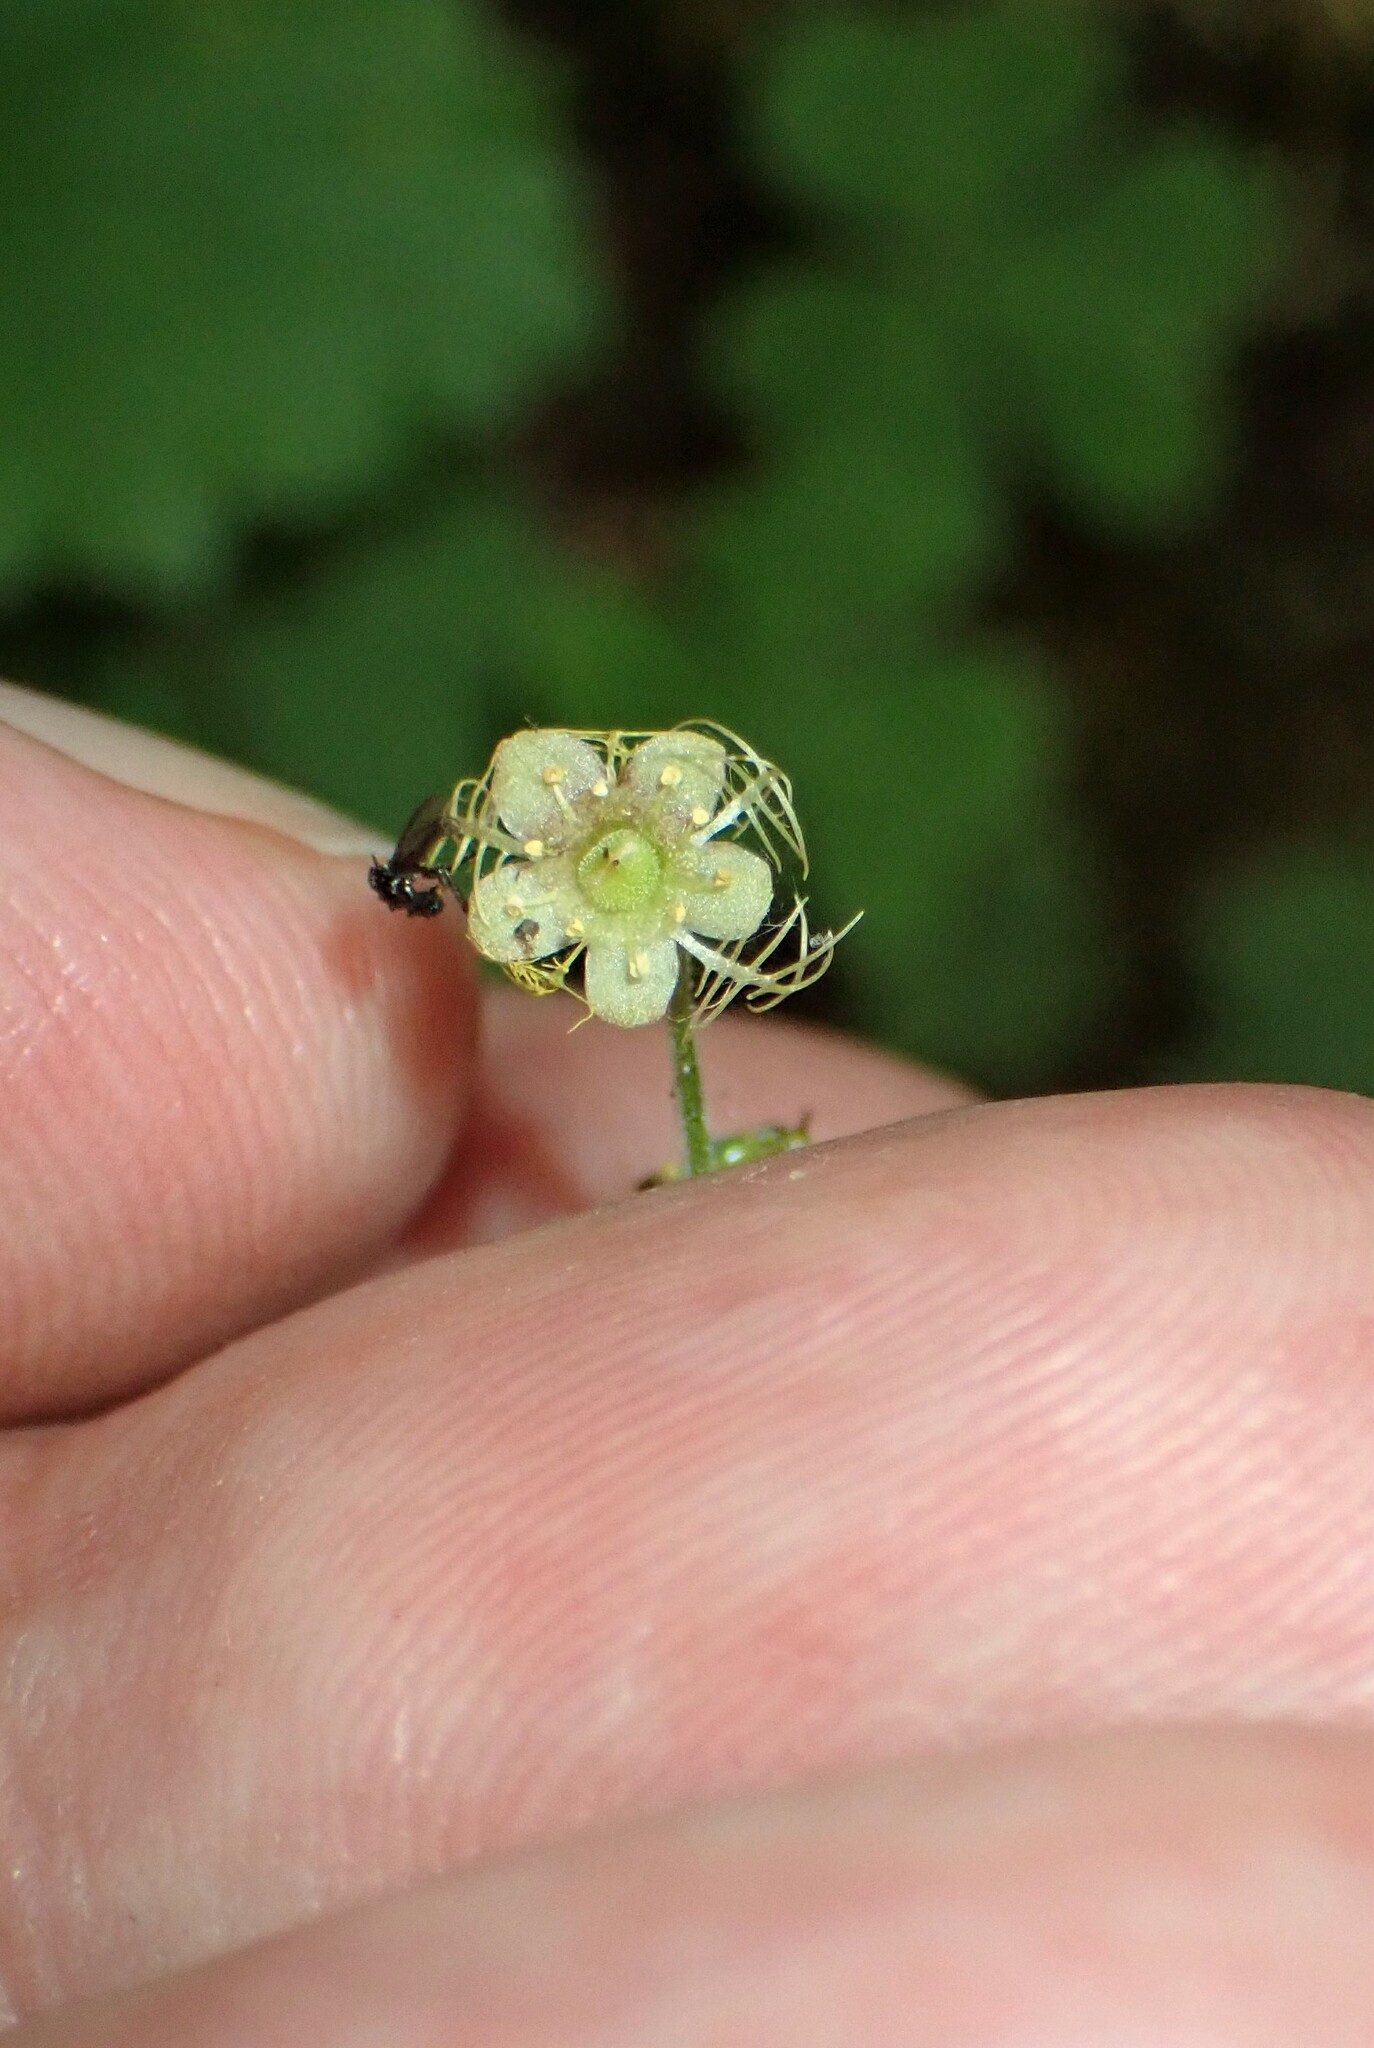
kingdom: Plantae
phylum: Tracheophyta
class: Magnoliopsida
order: Saxifragales
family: Saxifragaceae
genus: Mitella
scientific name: Mitella nuda
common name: Bare-stemmed bishop's-cap
